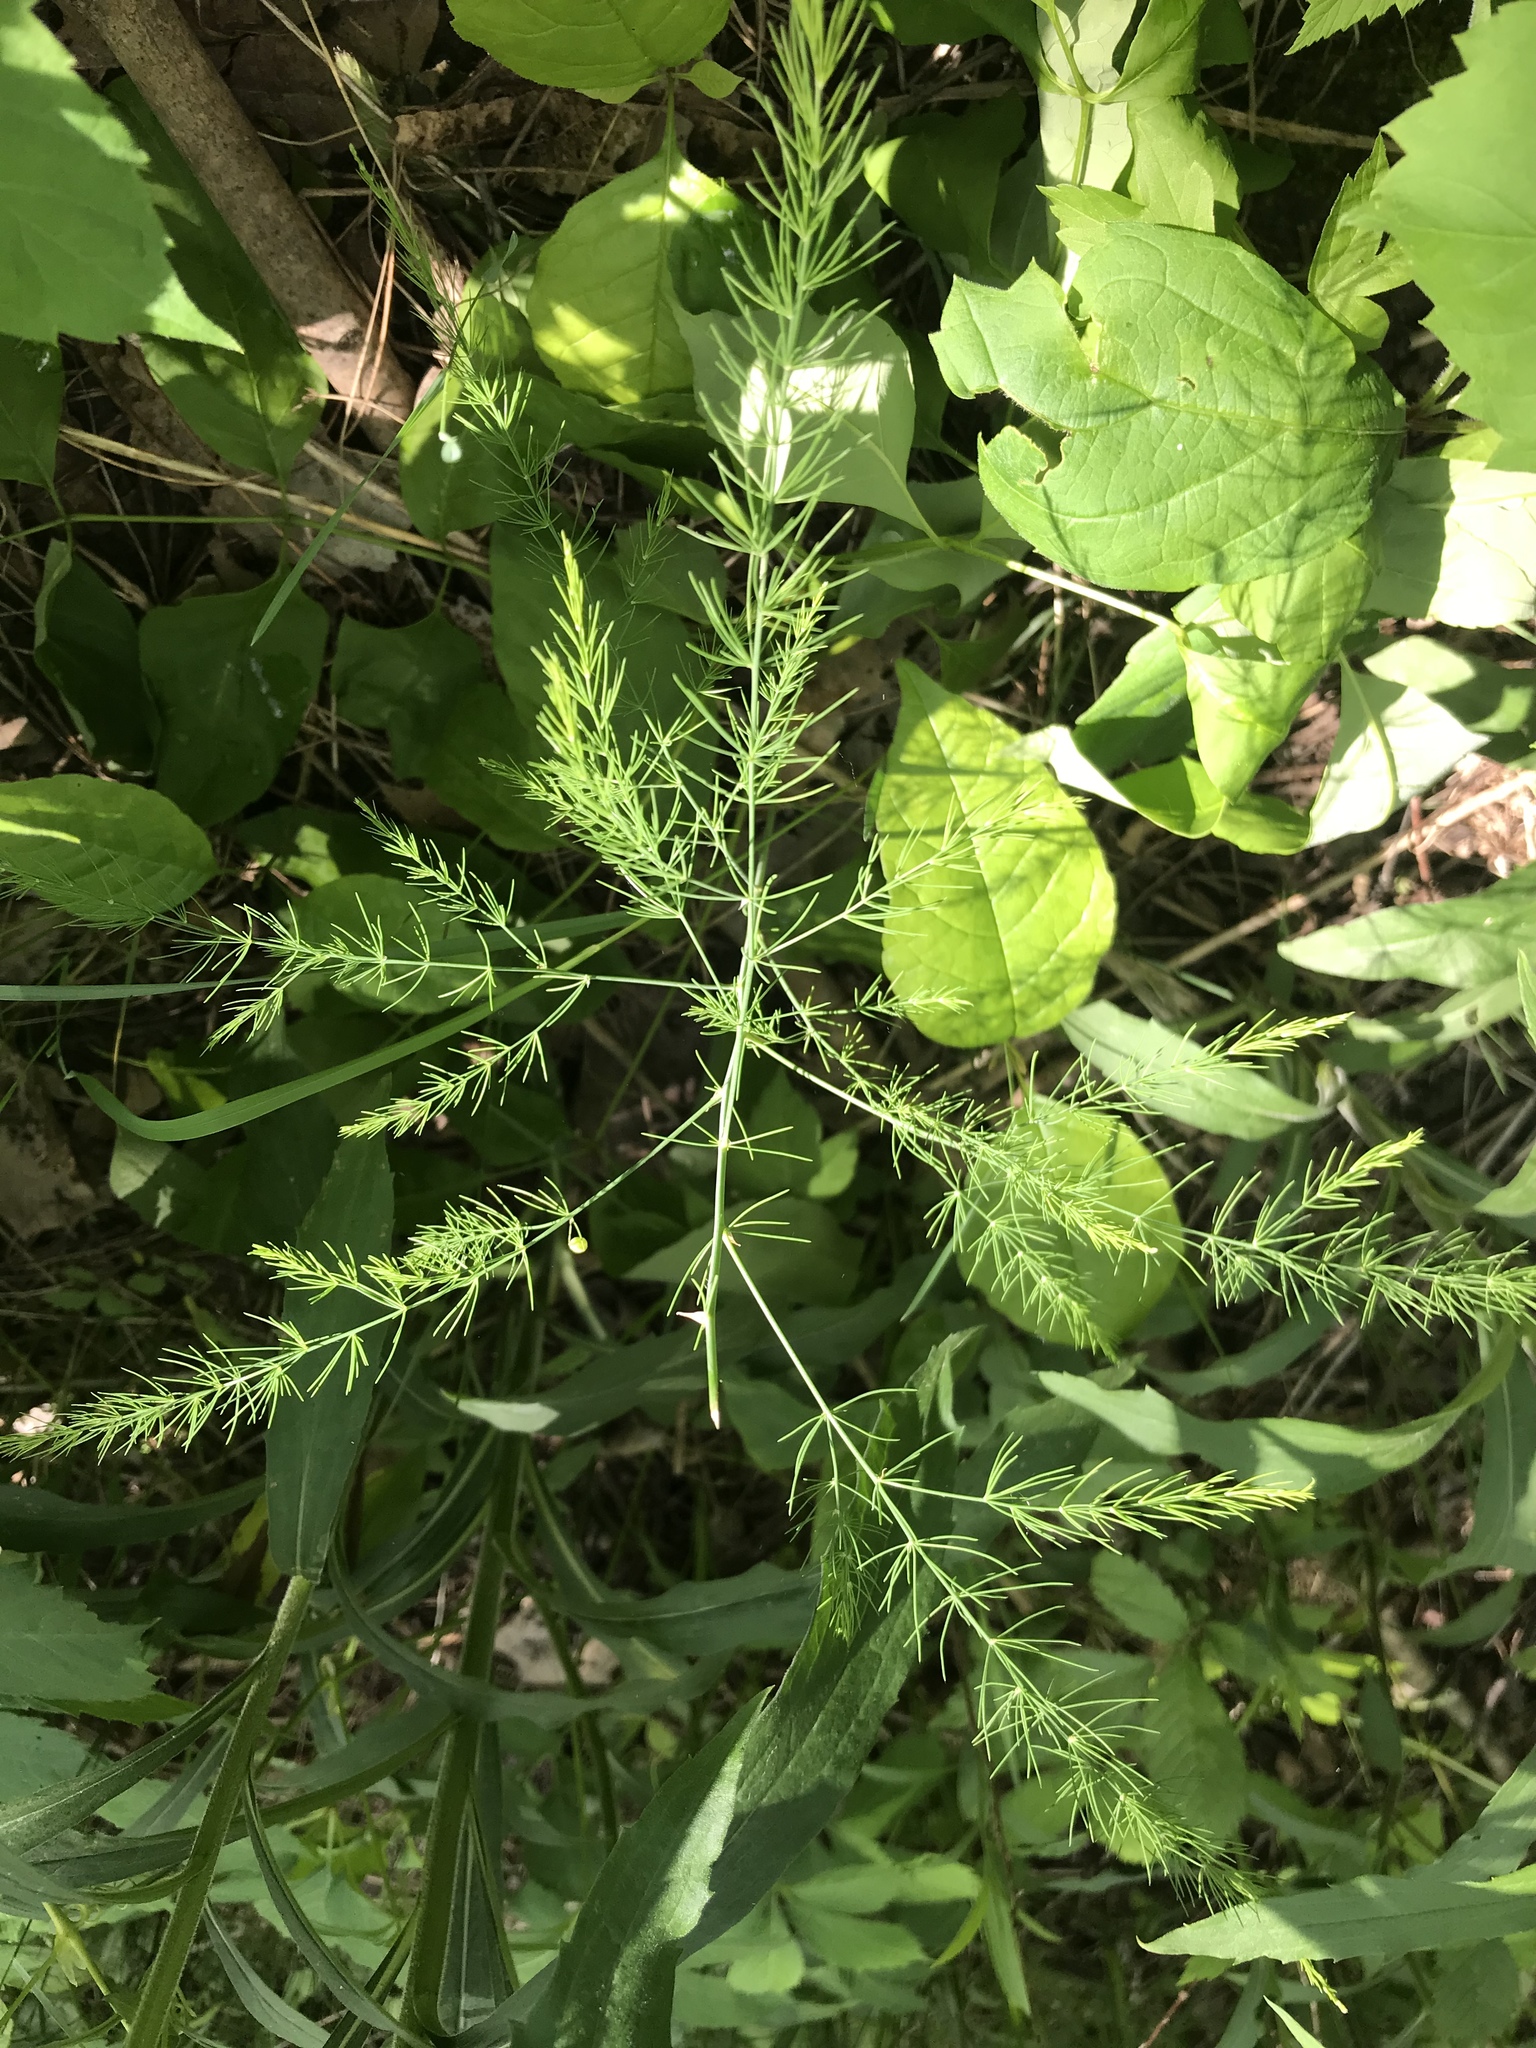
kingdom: Plantae
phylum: Tracheophyta
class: Liliopsida
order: Asparagales
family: Asparagaceae
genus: Asparagus
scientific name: Asparagus officinalis
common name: Garden asparagus
